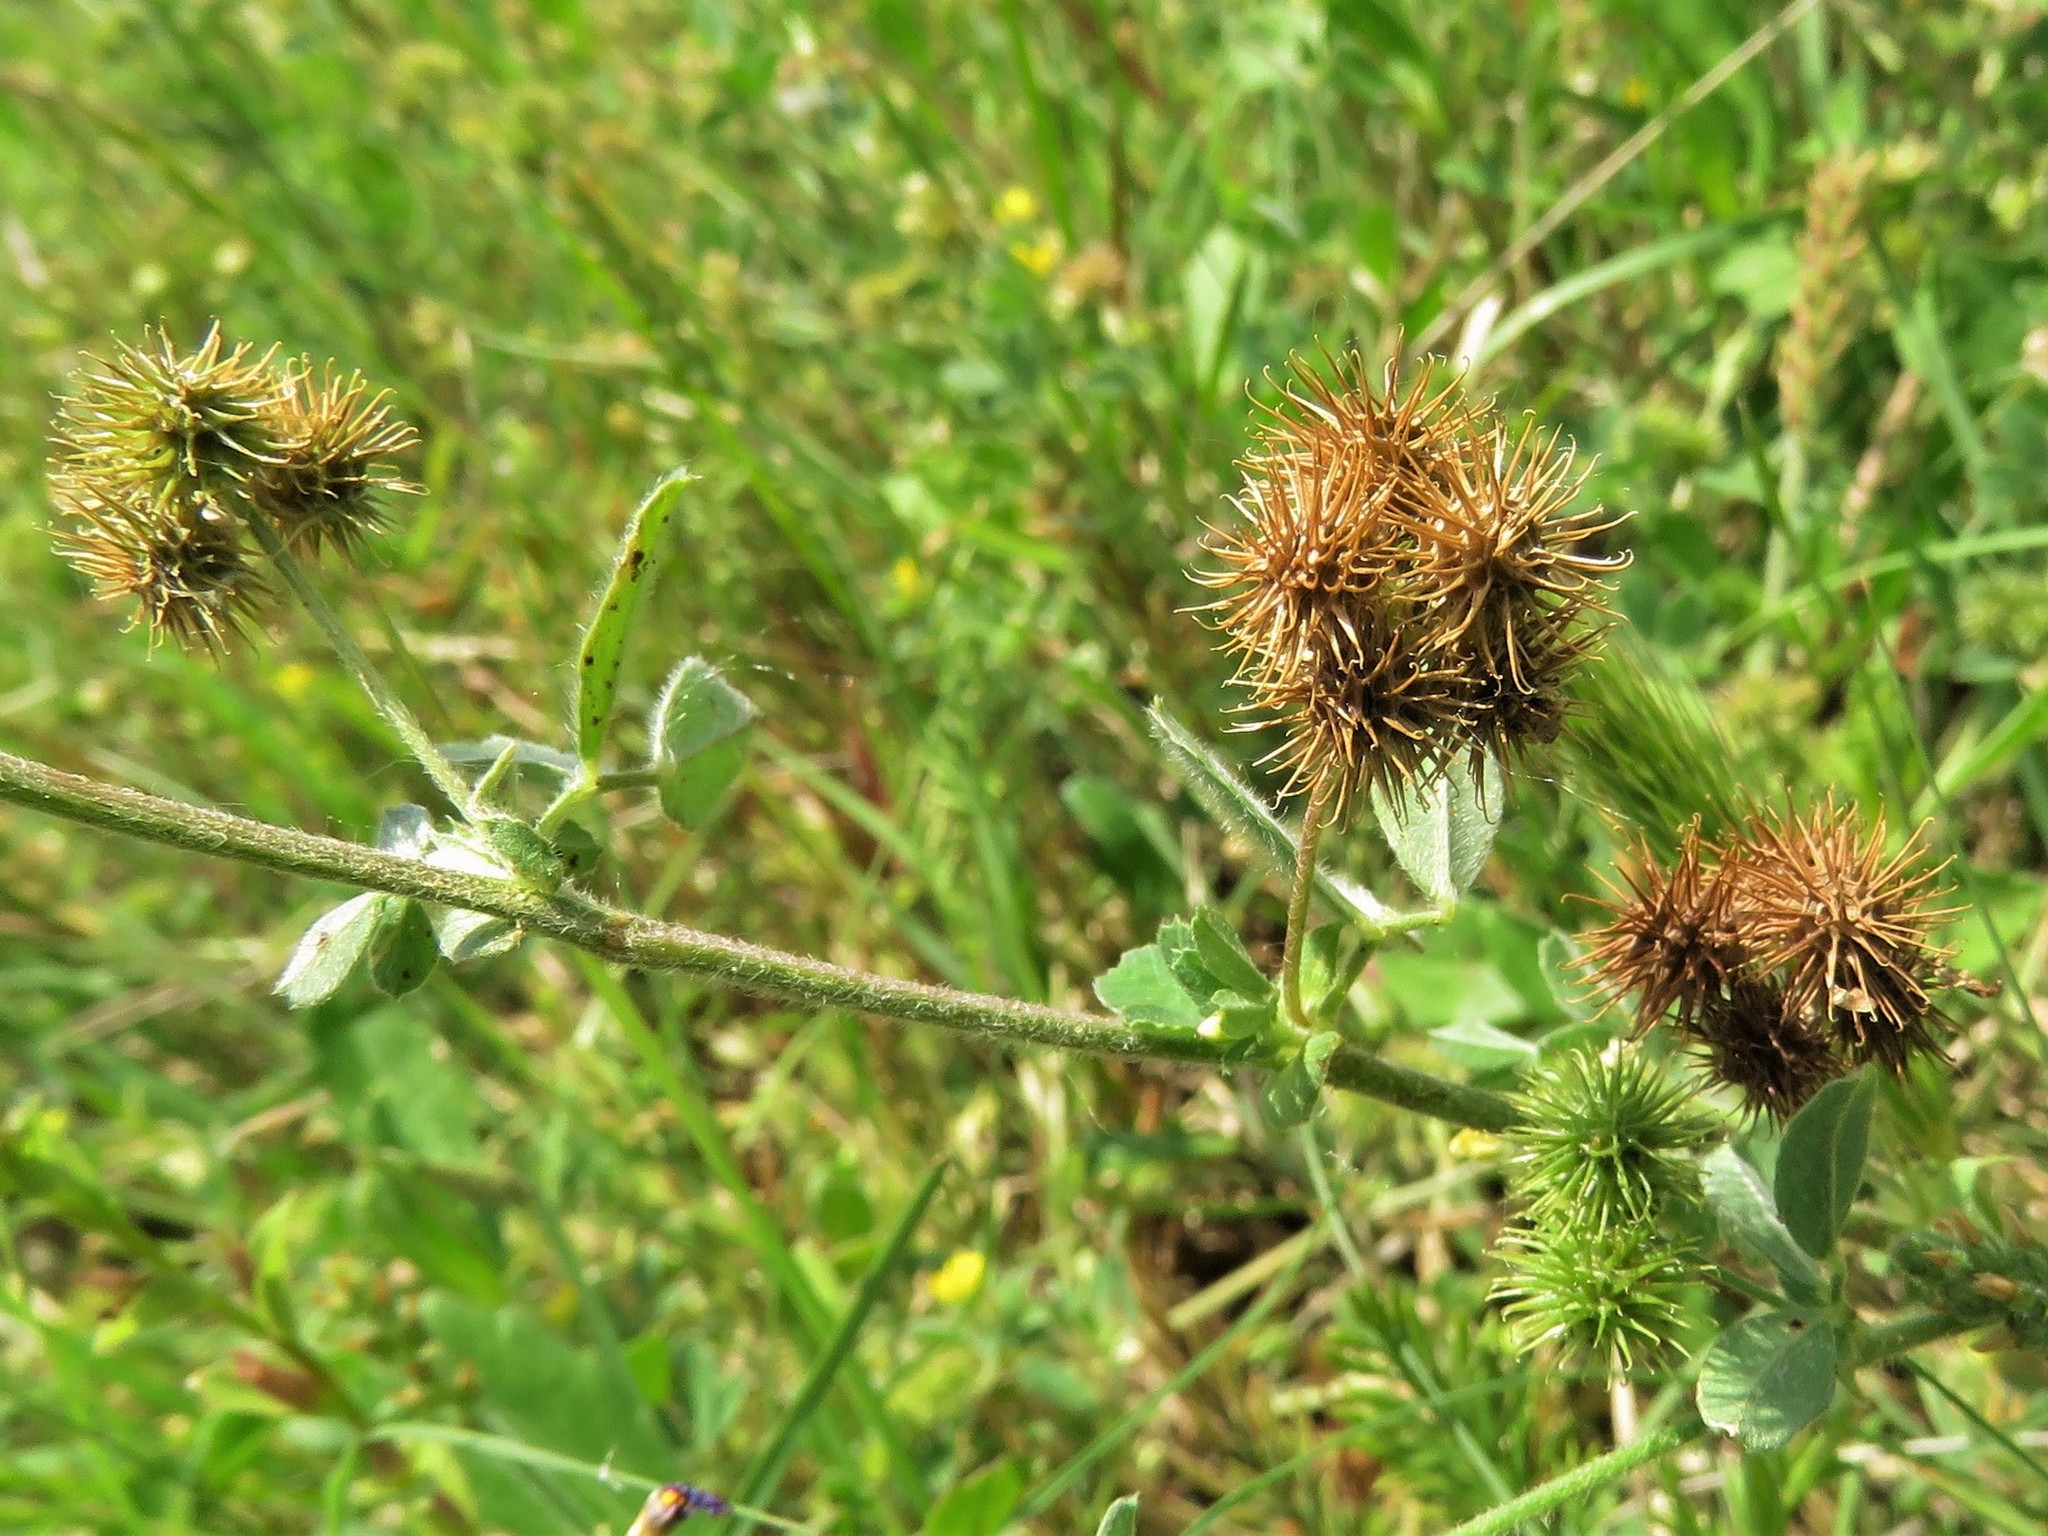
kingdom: Plantae
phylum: Tracheophyta
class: Magnoliopsida
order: Fabales
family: Fabaceae
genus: Medicago
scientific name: Medicago polymorpha
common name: Burclover
